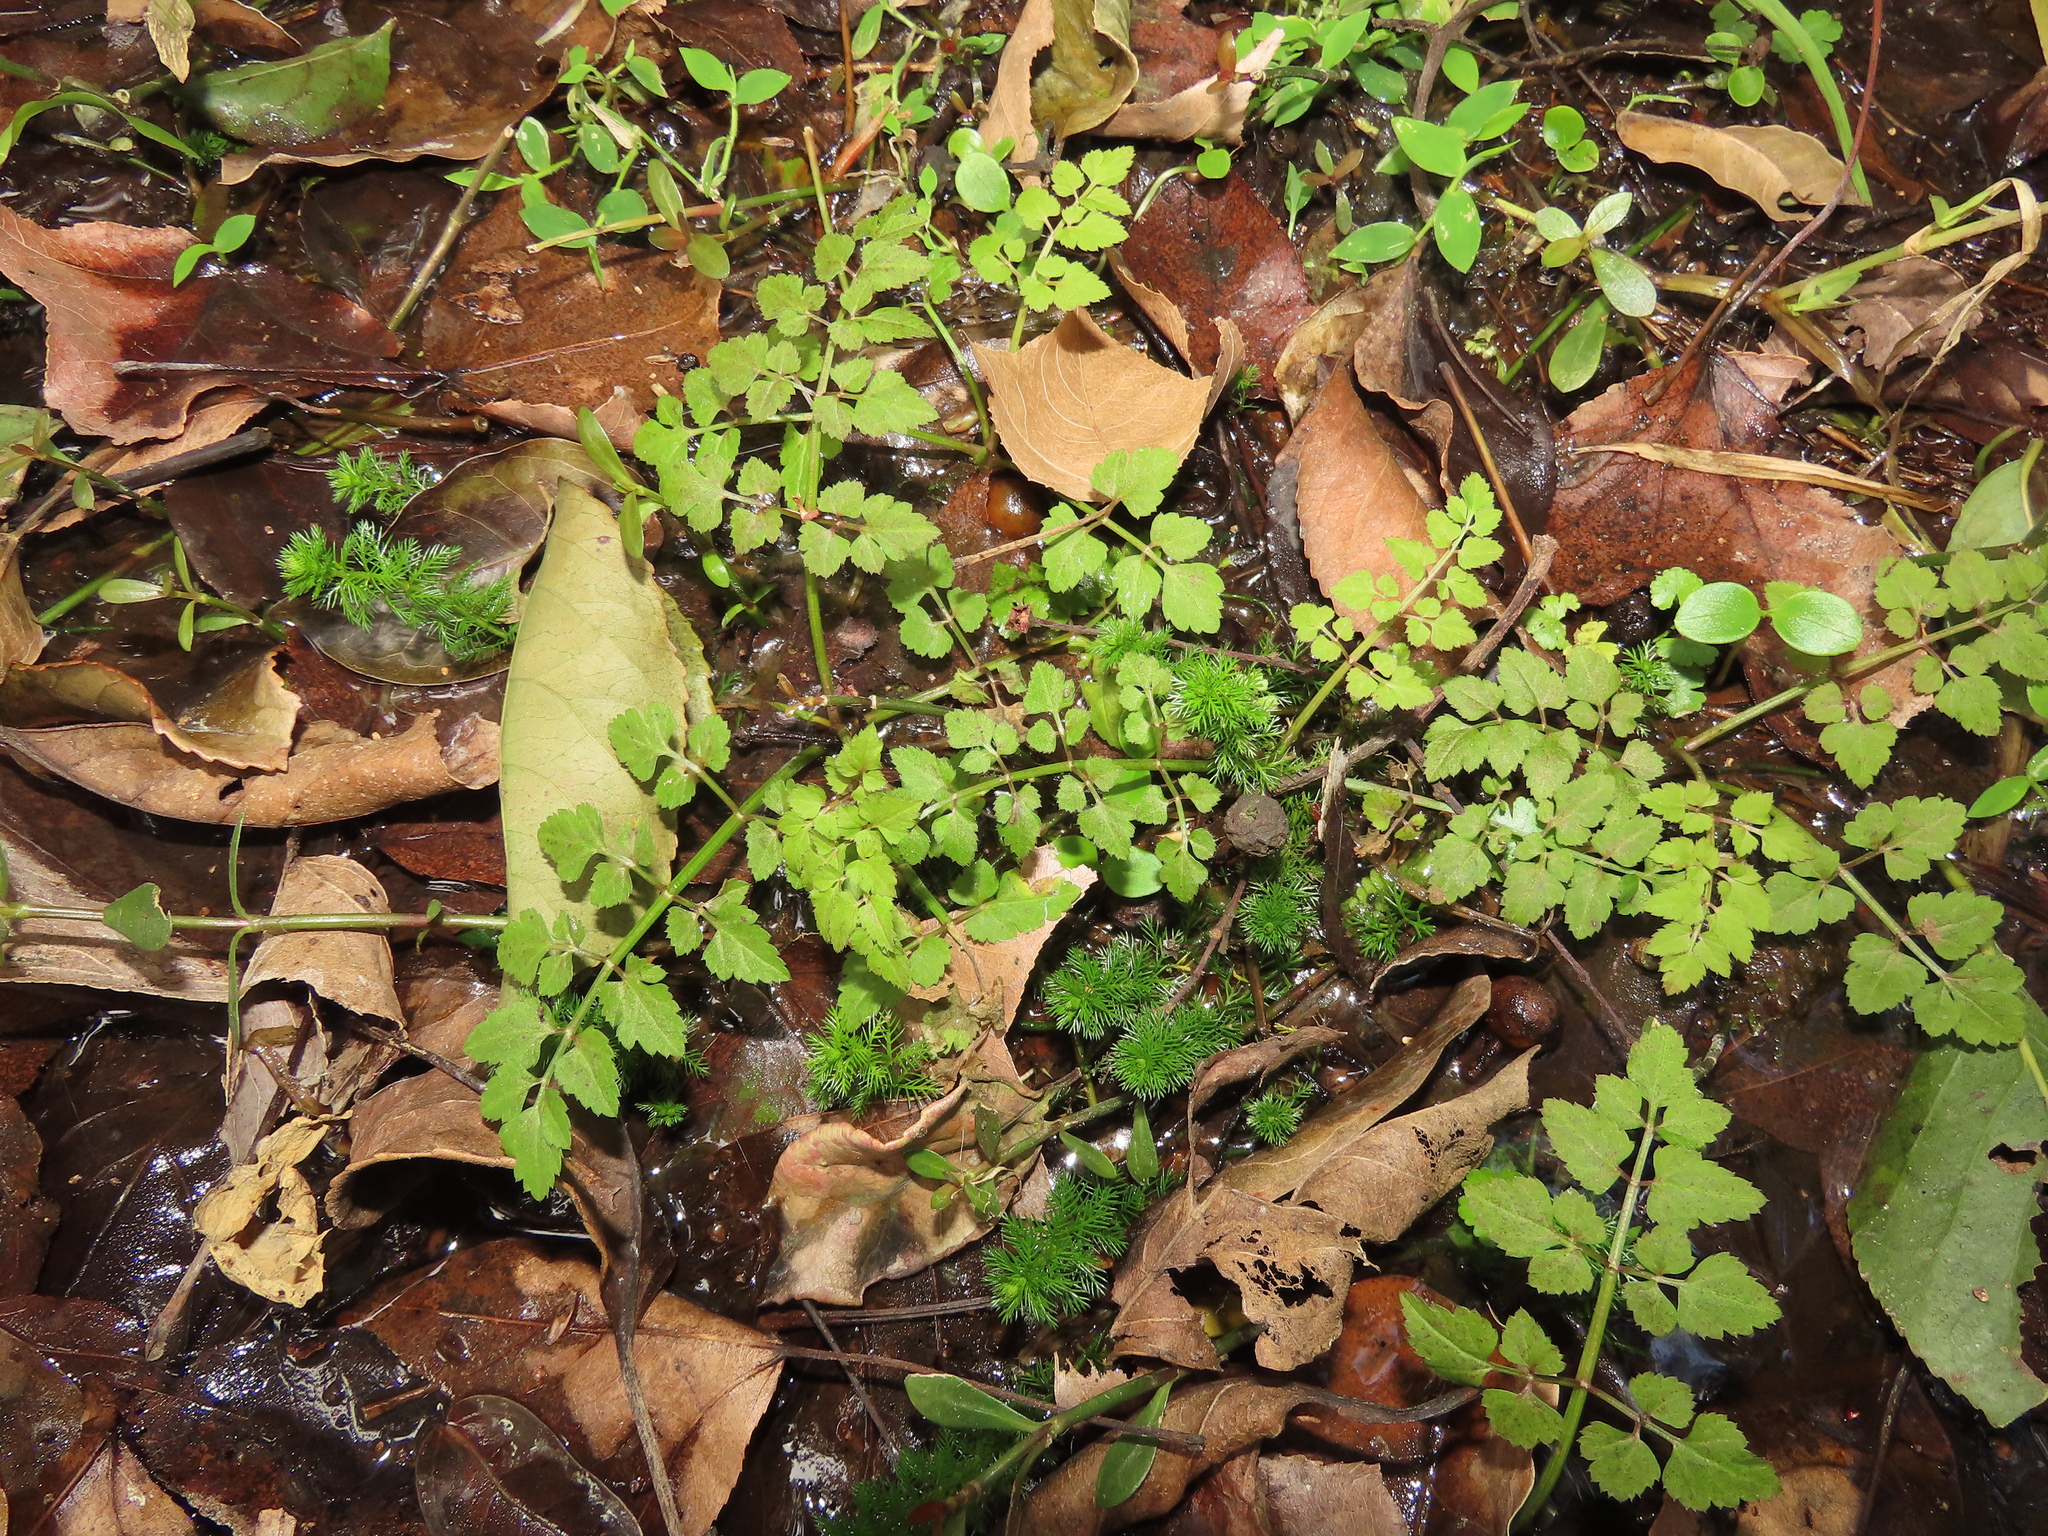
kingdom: Plantae
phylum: Tracheophyta
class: Magnoliopsida
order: Apiales
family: Apiaceae
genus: Oenanthe
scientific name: Oenanthe javanica
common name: Java water-dropwort
